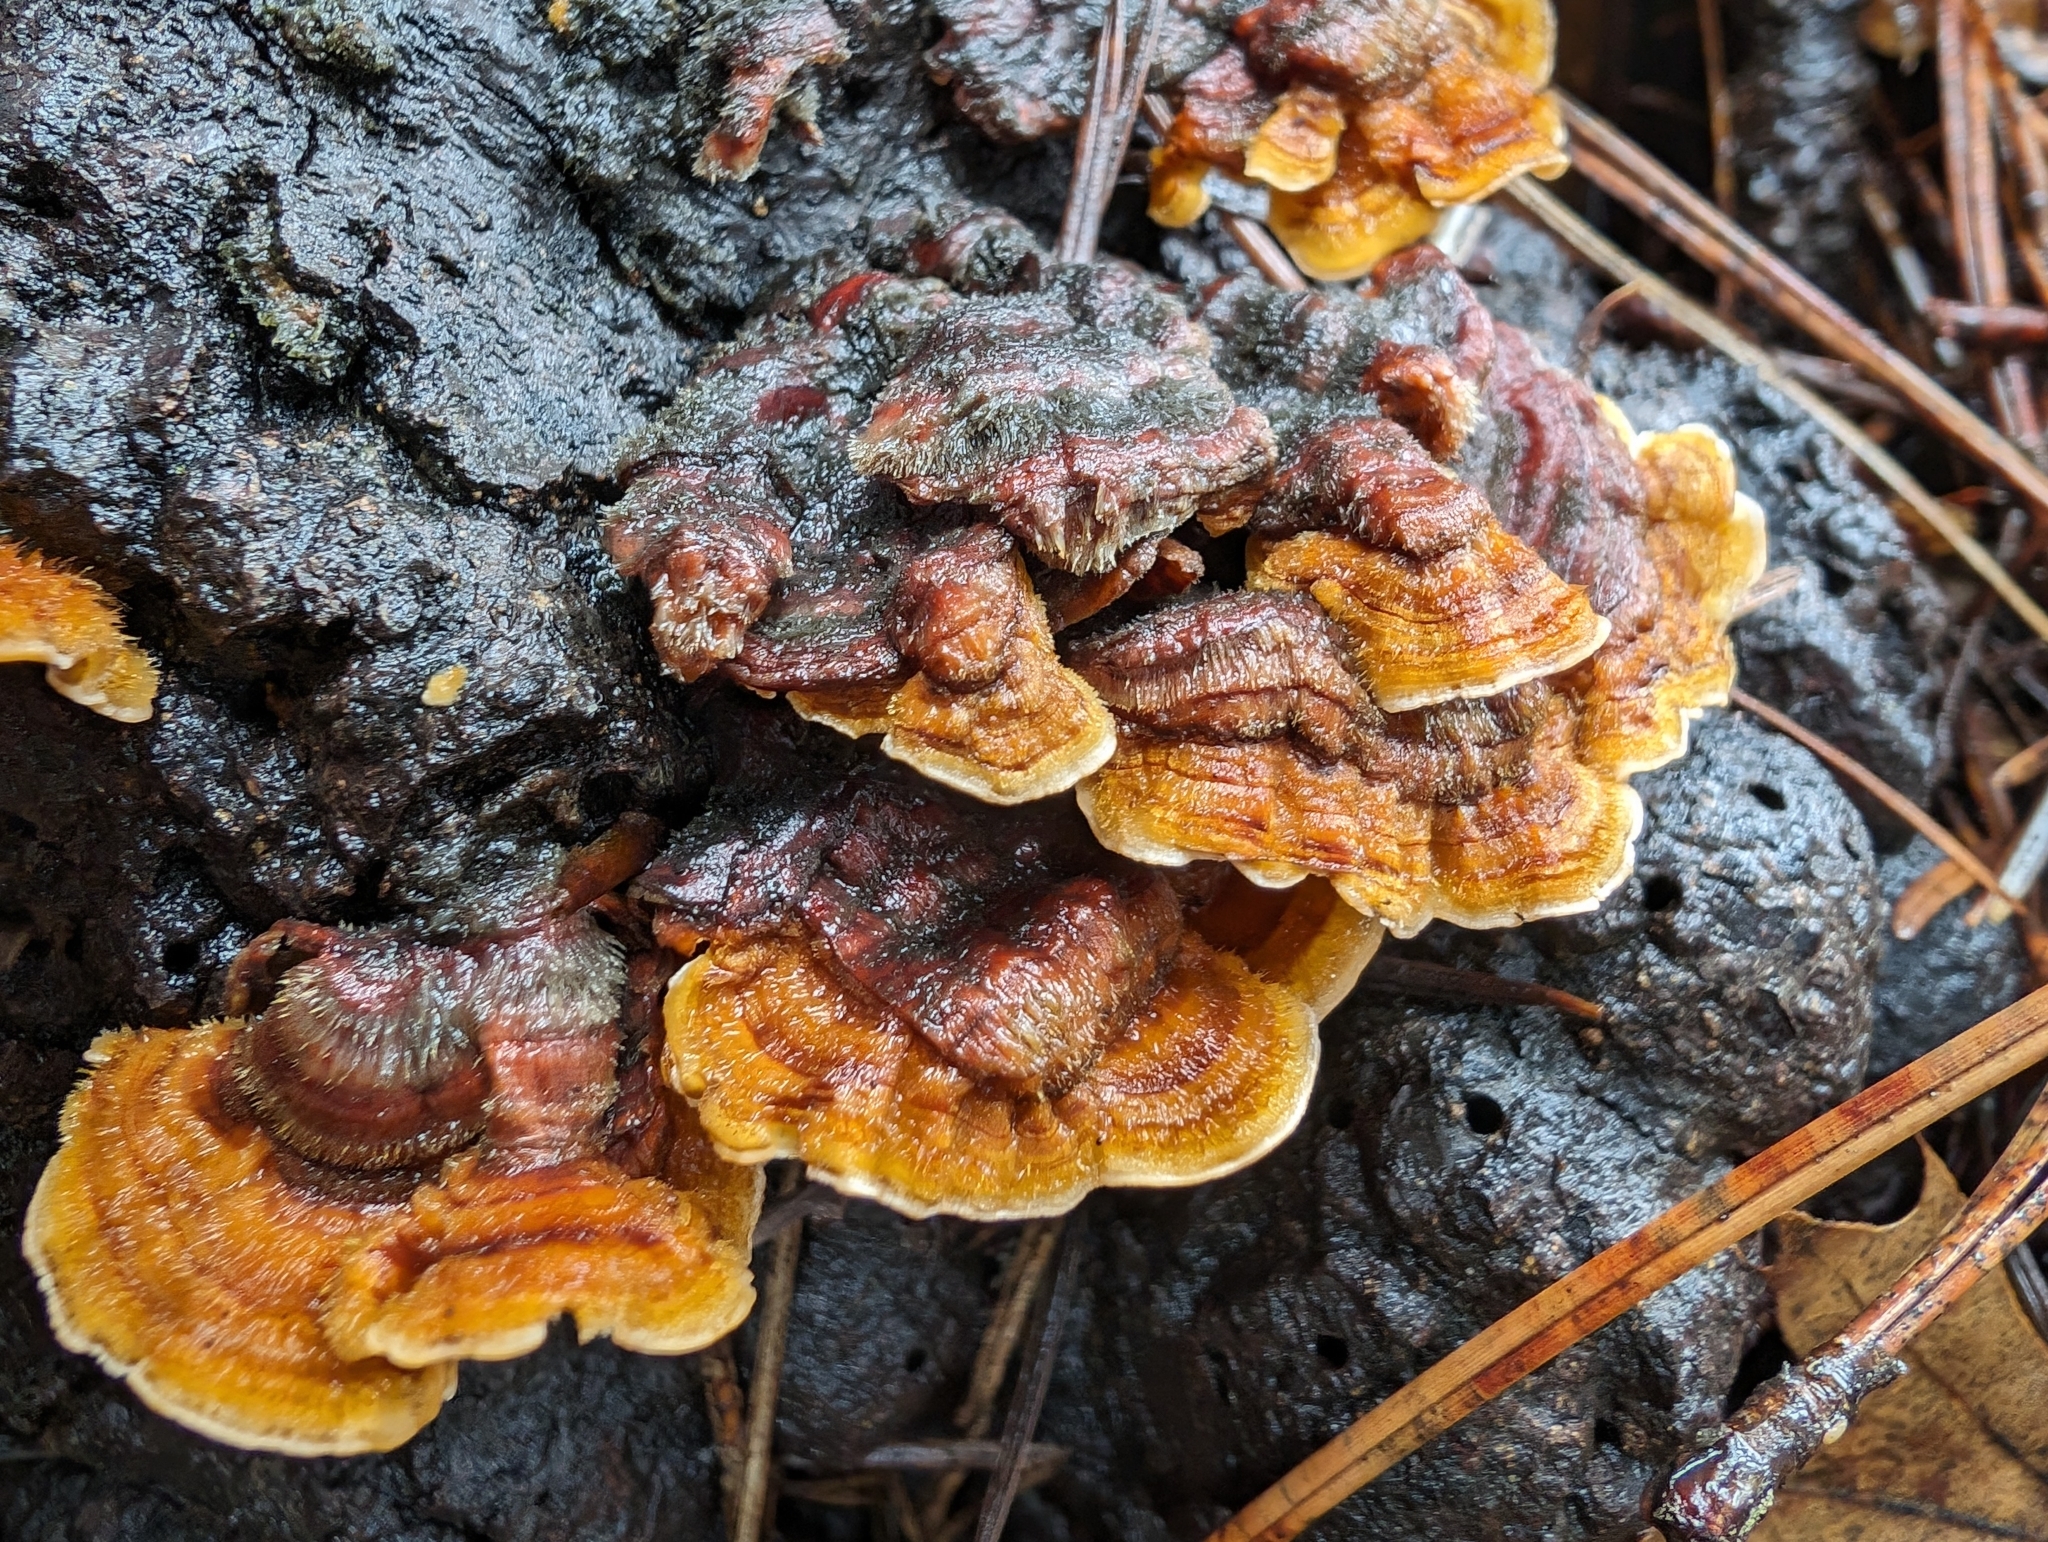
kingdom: Fungi
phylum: Basidiomycota
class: Agaricomycetes
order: Russulales
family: Stereaceae
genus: Stereum
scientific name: Stereum hirsutum
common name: Hairy curtain crust
